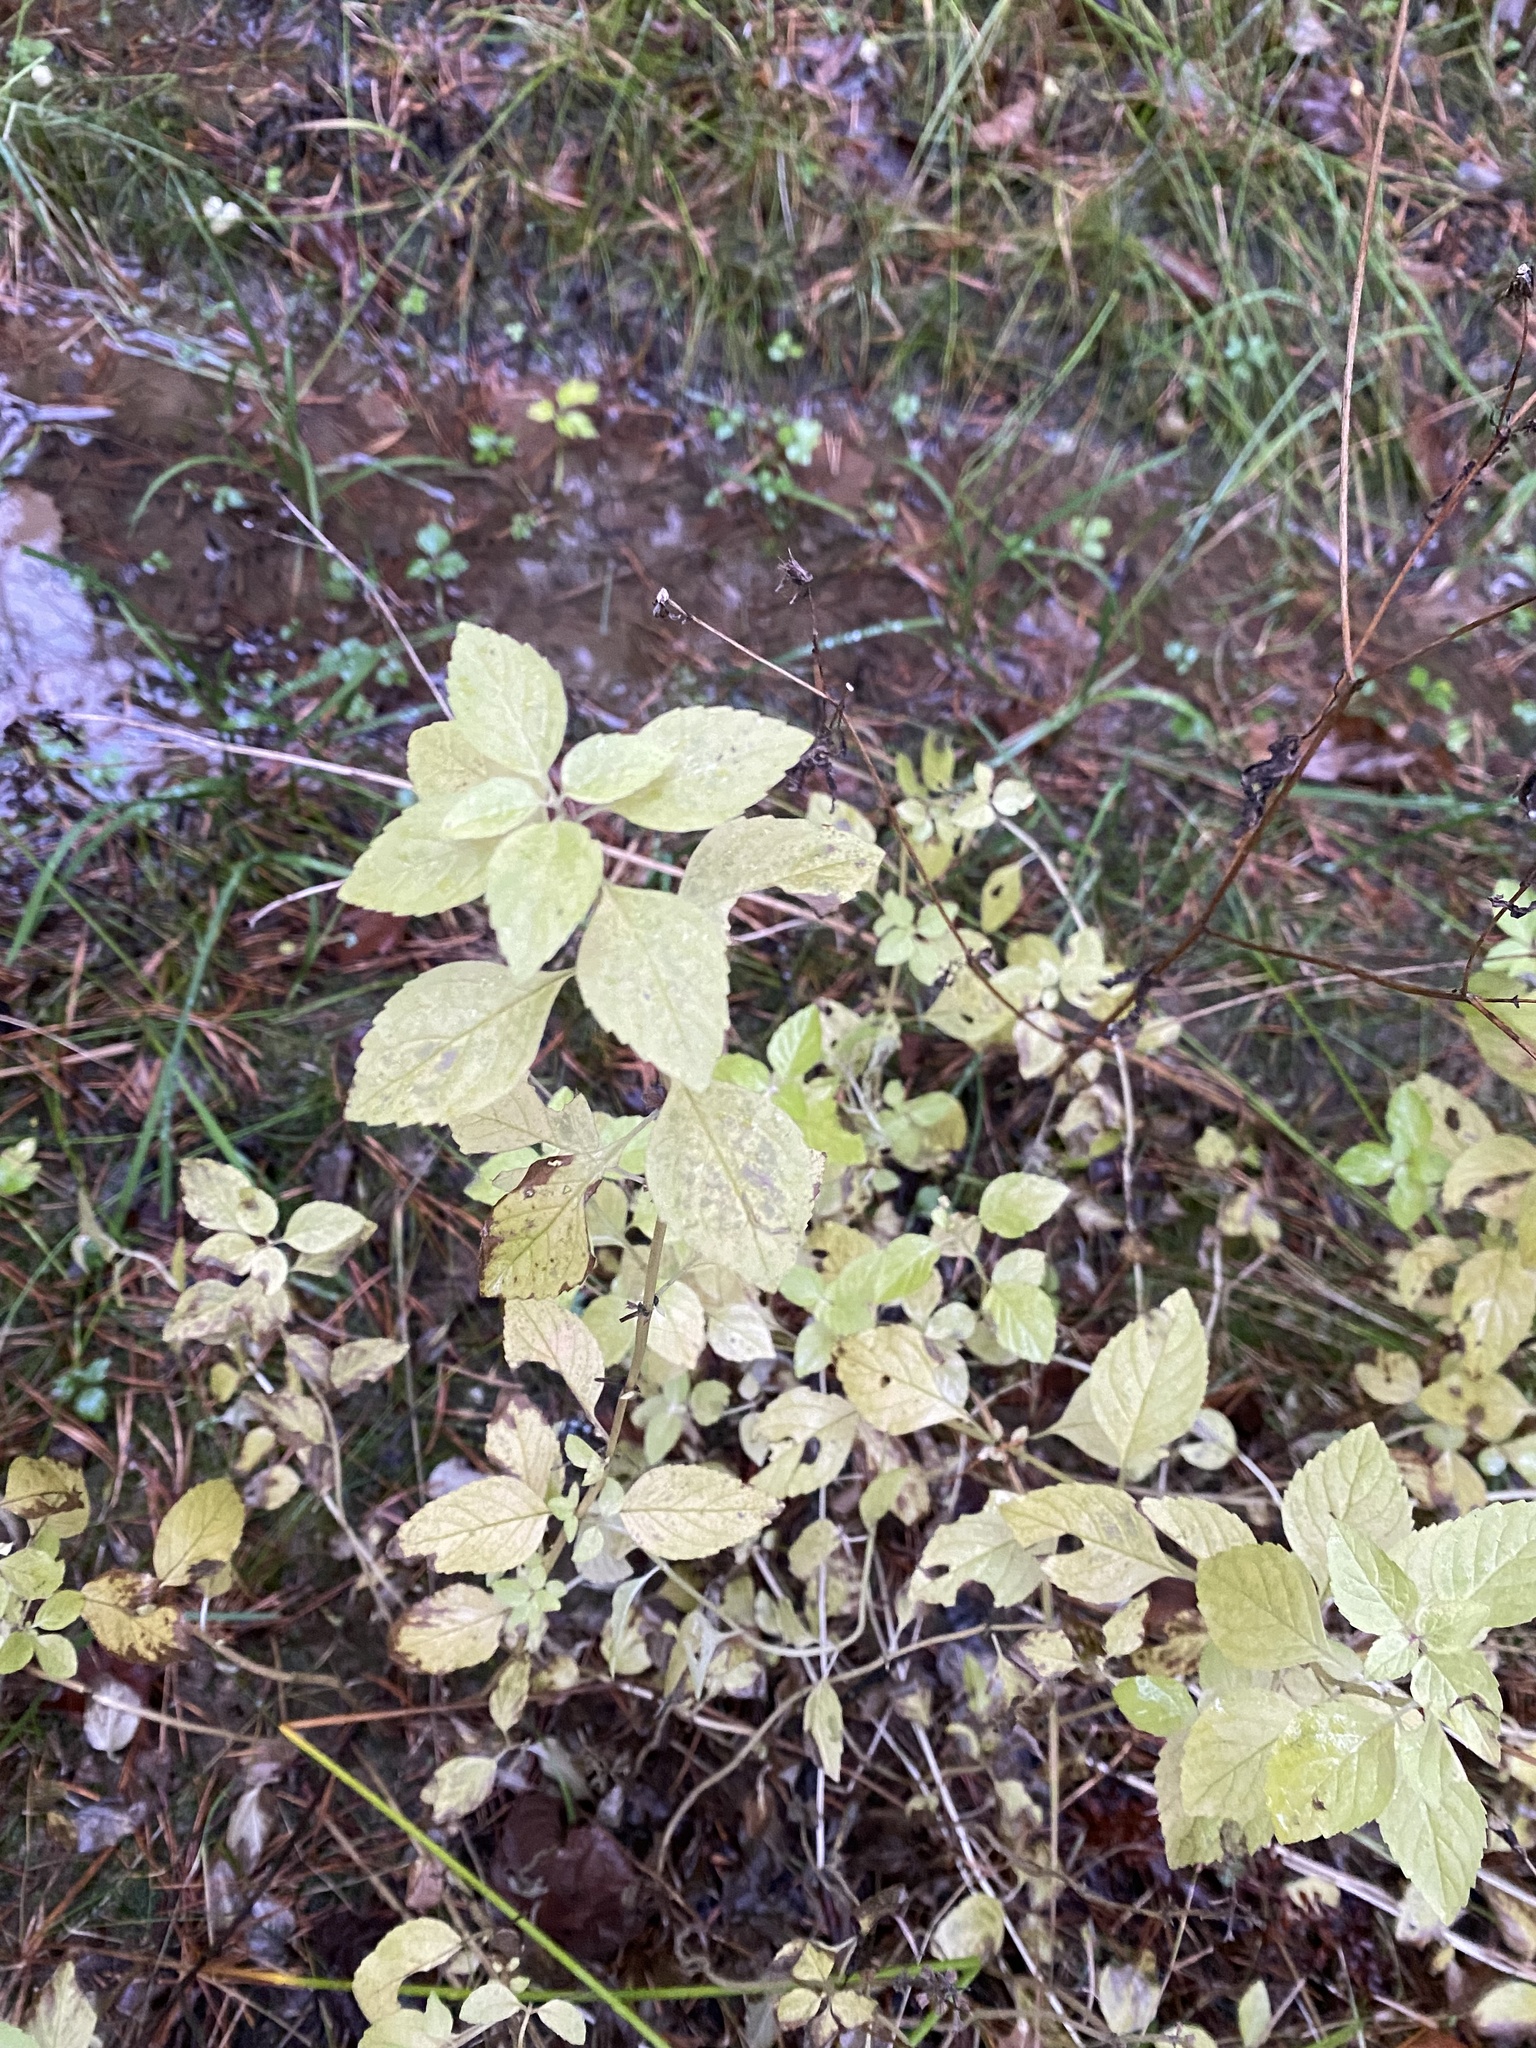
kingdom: Plantae
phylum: Tracheophyta
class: Magnoliopsida
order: Lamiales
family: Lamiaceae
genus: Mentha
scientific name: Mentha arvensis
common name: Corn mint
